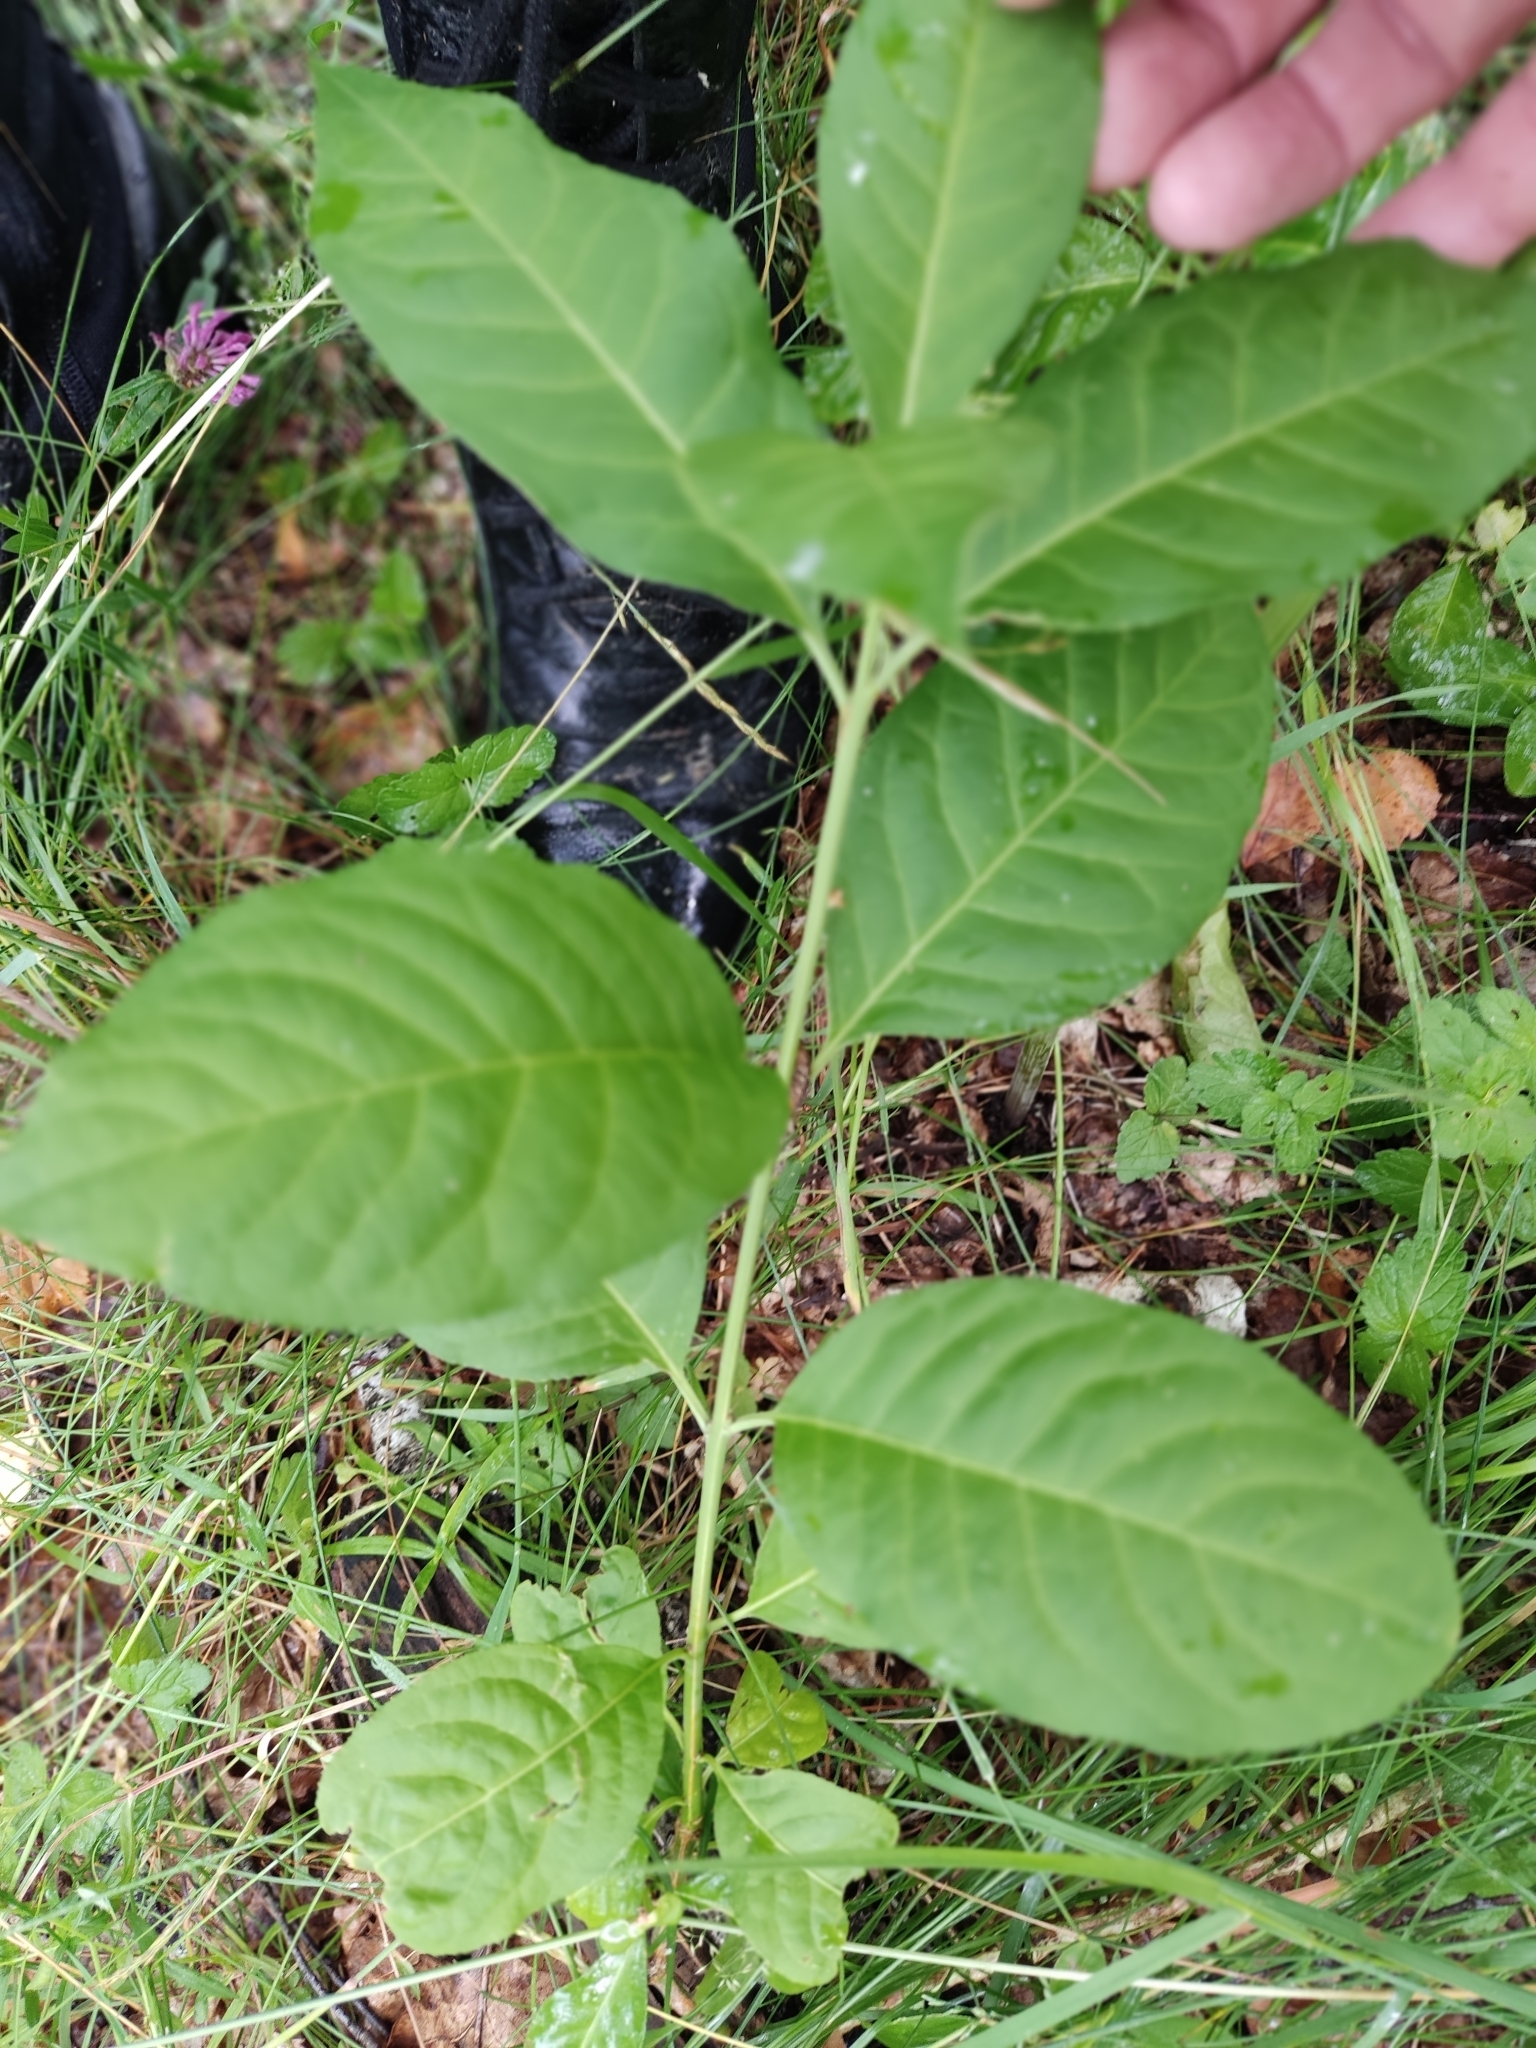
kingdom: Plantae
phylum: Tracheophyta
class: Magnoliopsida
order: Celastrales
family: Celastraceae
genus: Euonymus
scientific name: Euonymus europaeus
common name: Spindle
